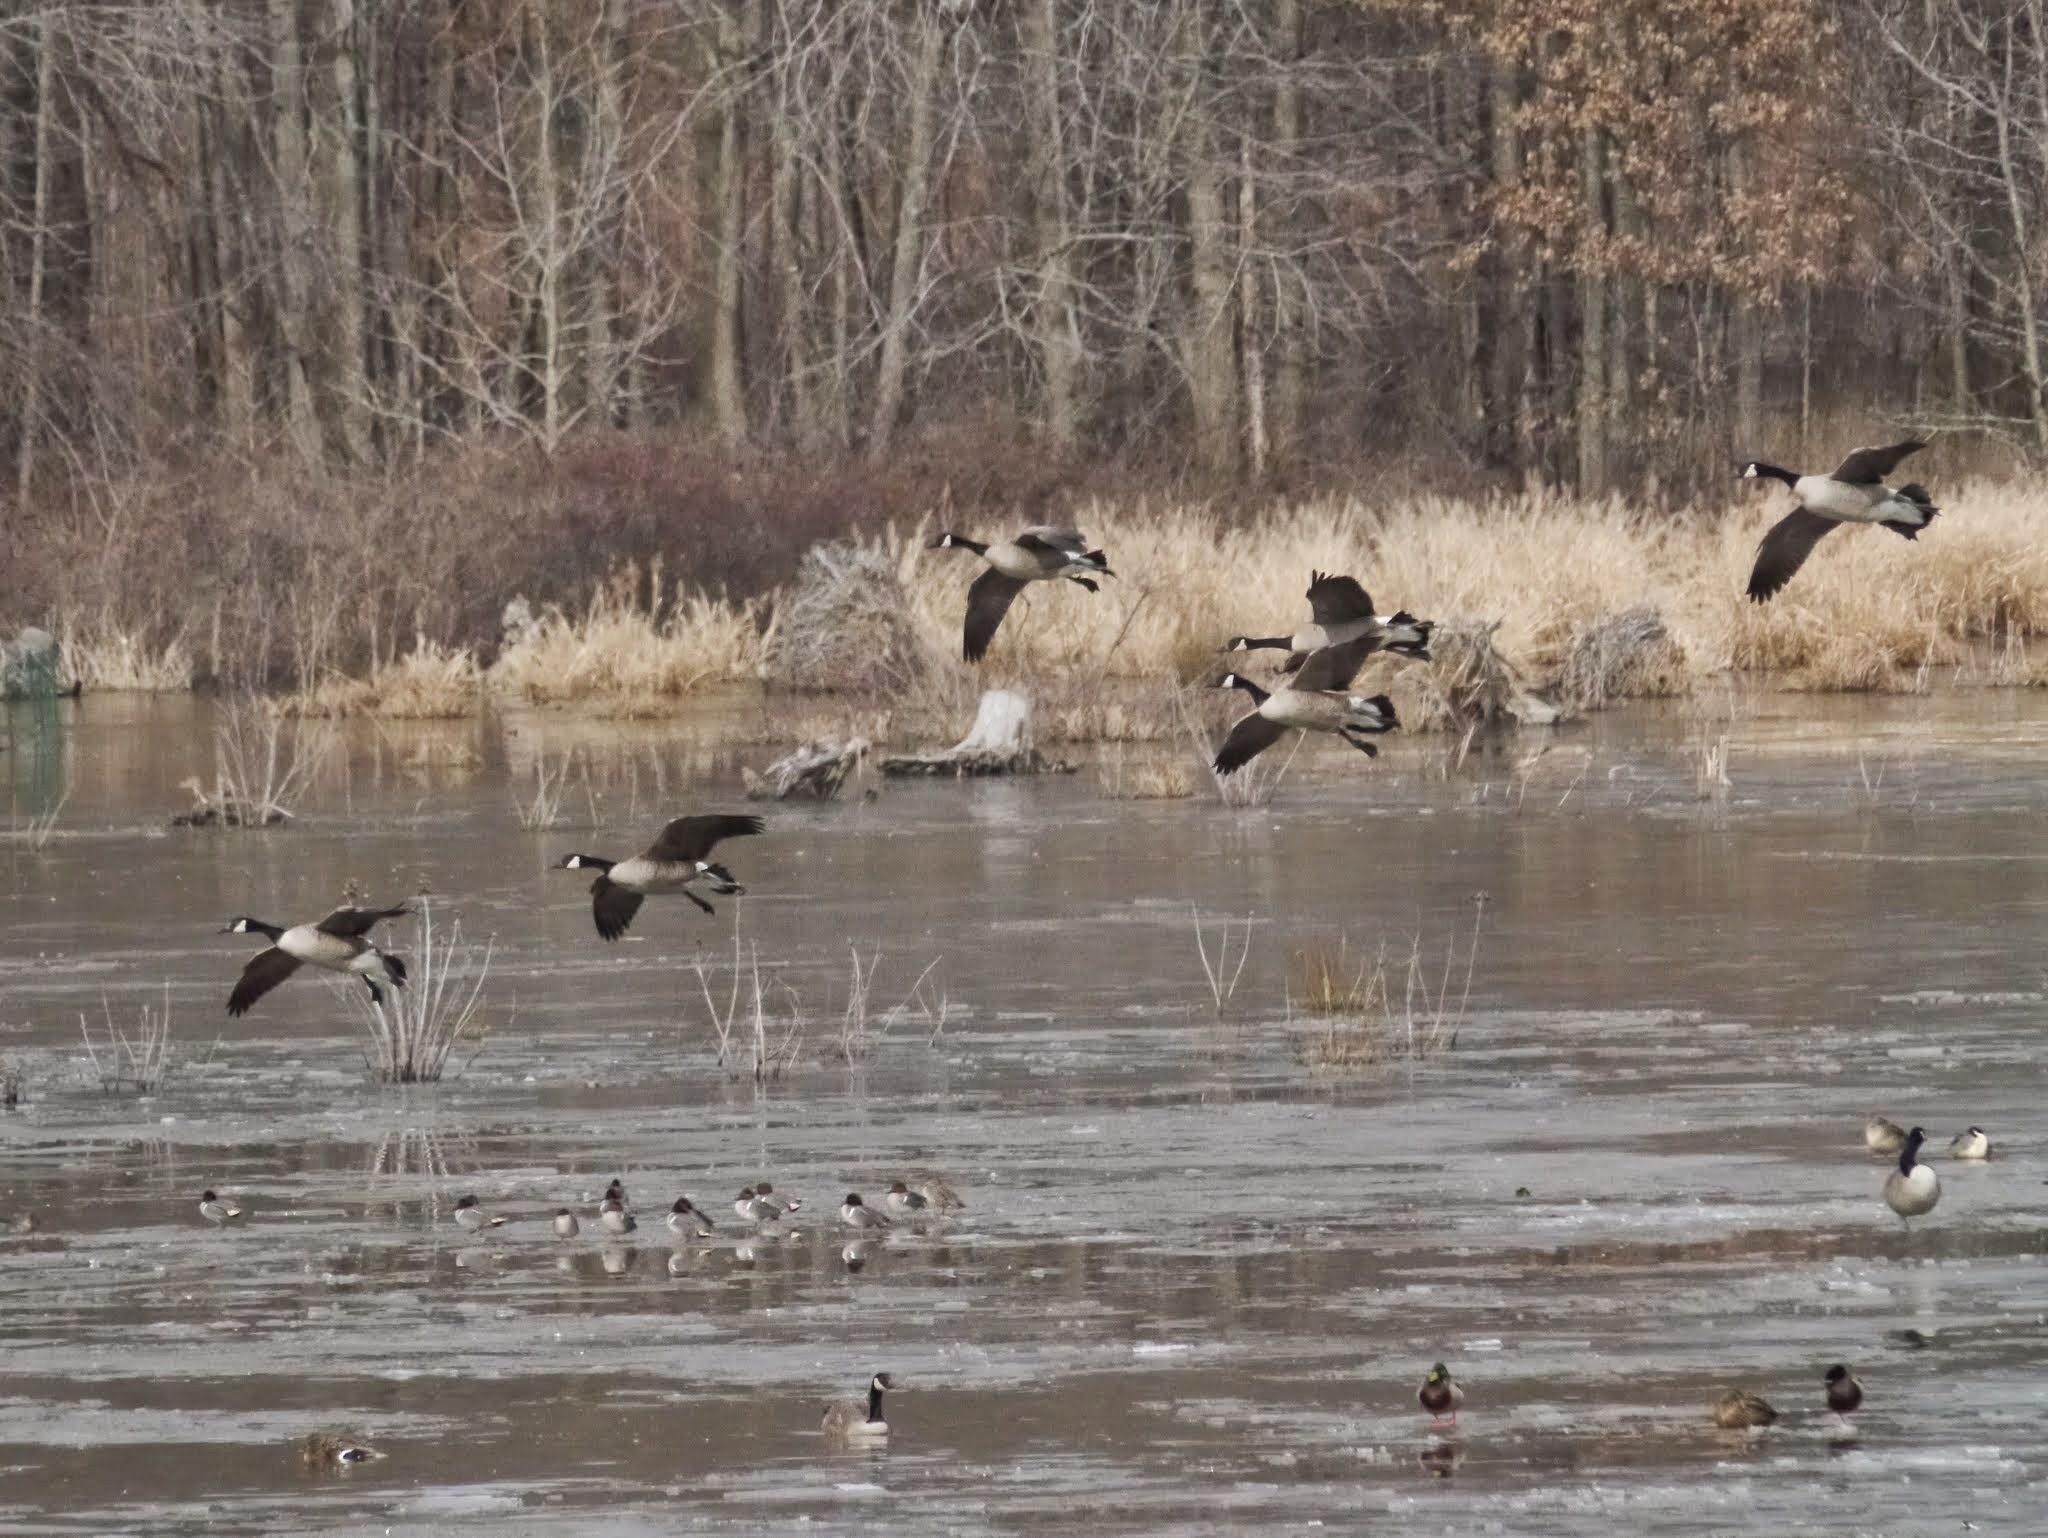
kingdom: Animalia
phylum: Chordata
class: Aves
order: Anseriformes
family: Anatidae
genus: Branta
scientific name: Branta canadensis
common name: Canada goose
